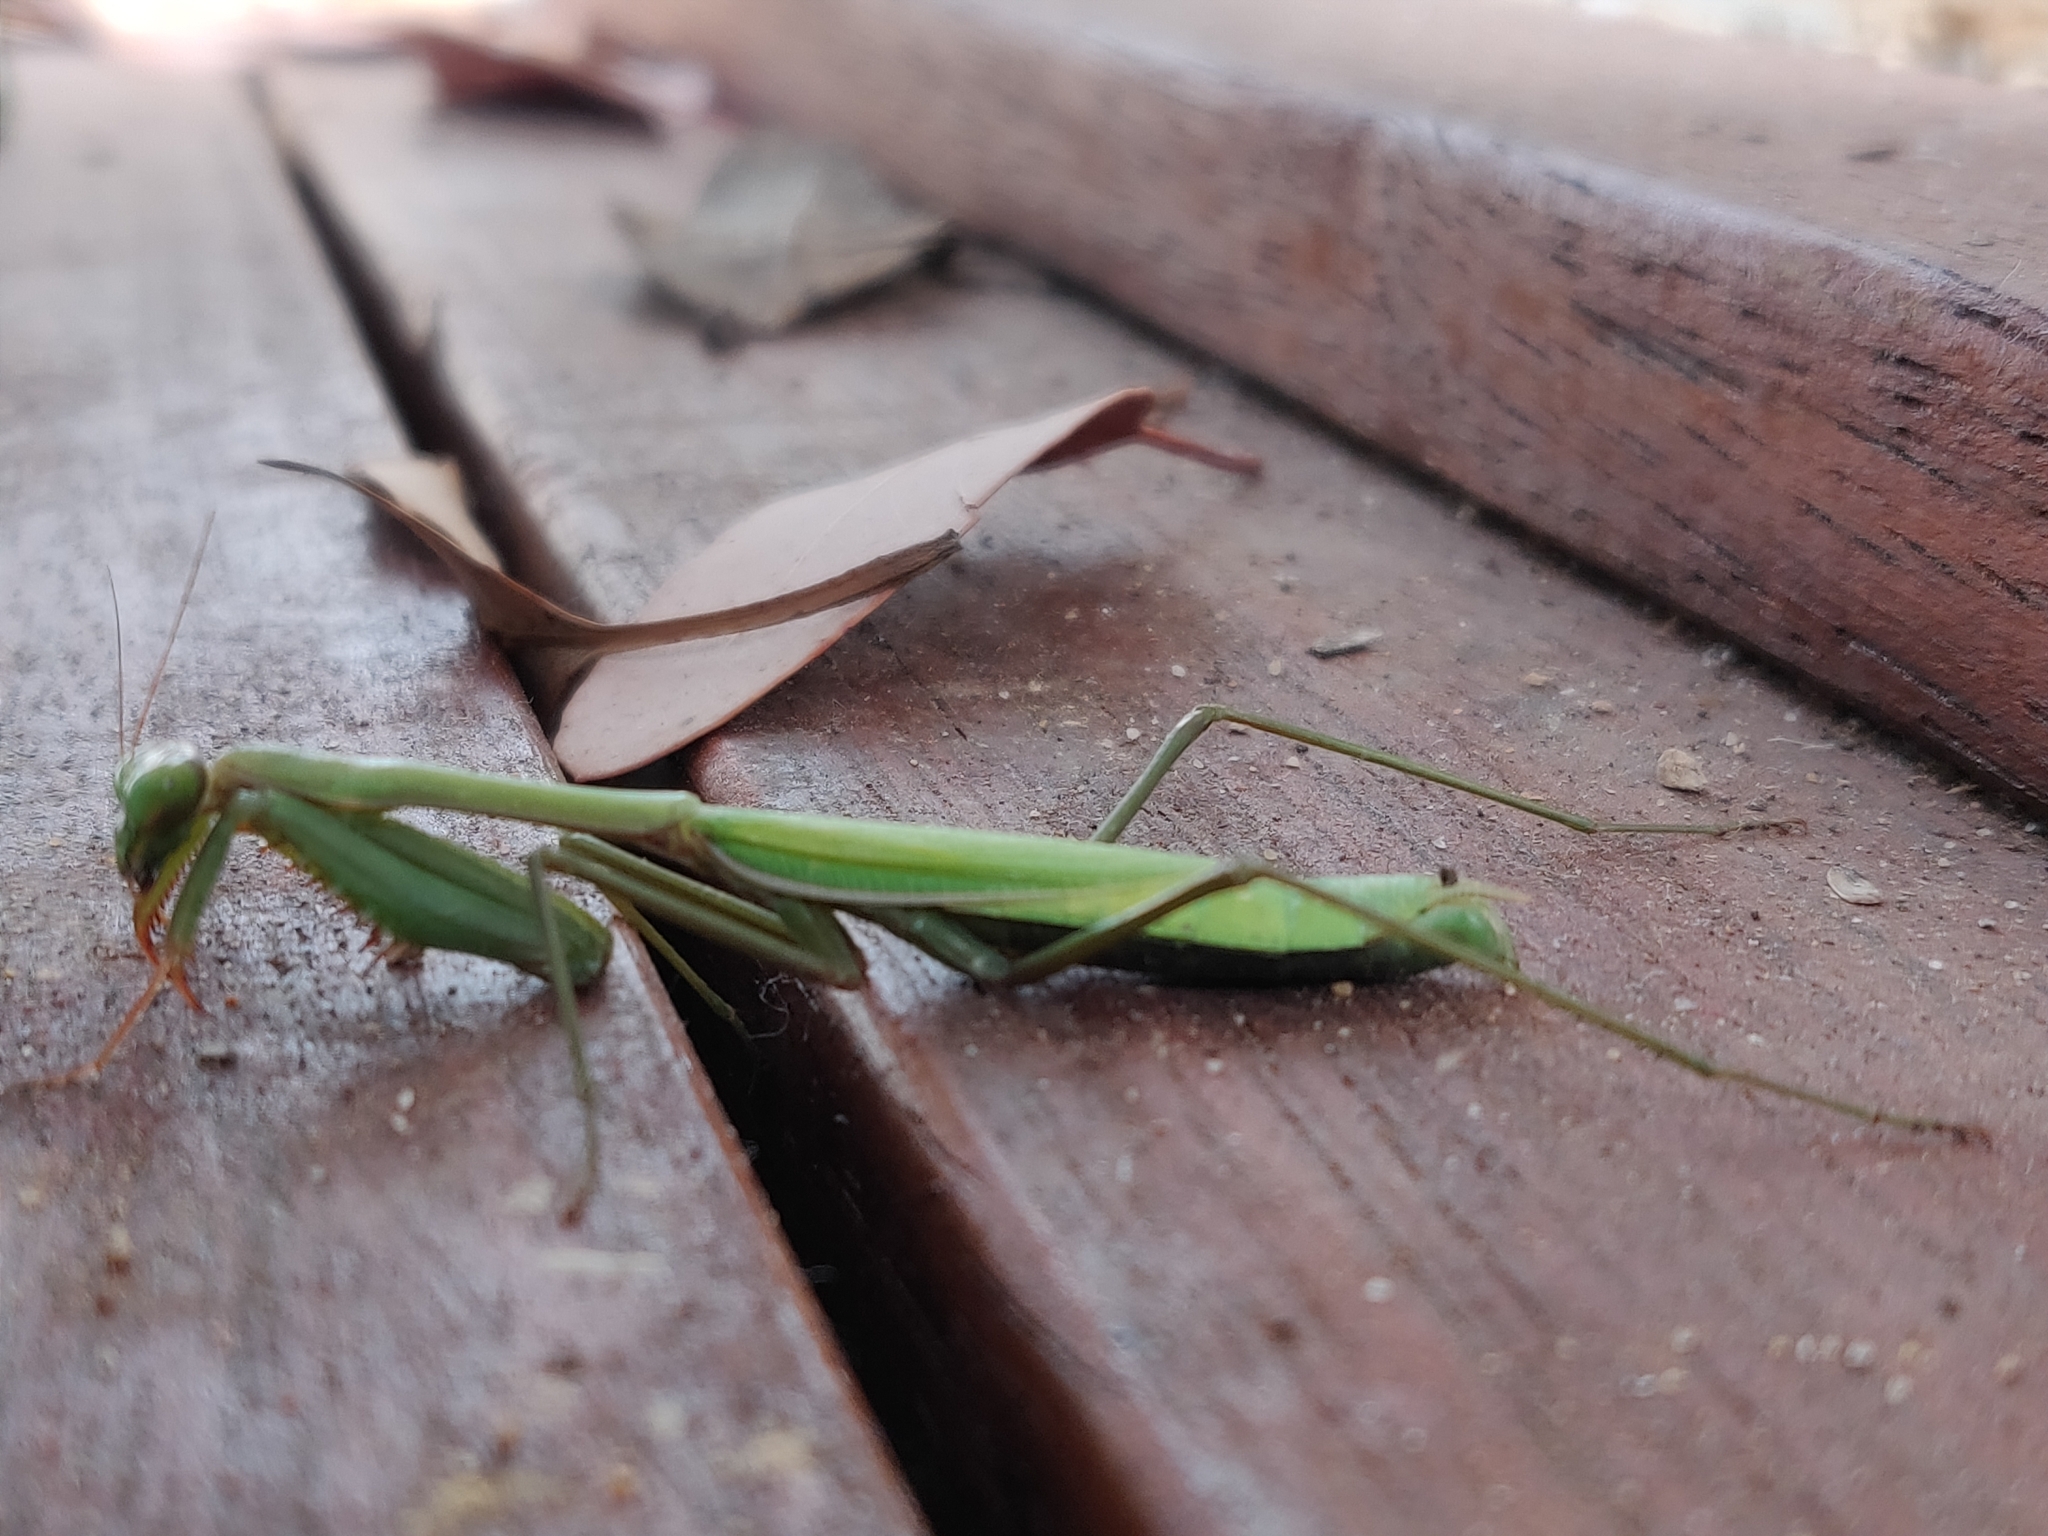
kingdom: Animalia
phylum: Arthropoda
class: Insecta
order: Mantodea
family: Mantidae
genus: Pseudomantis
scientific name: Pseudomantis albofimbriata
